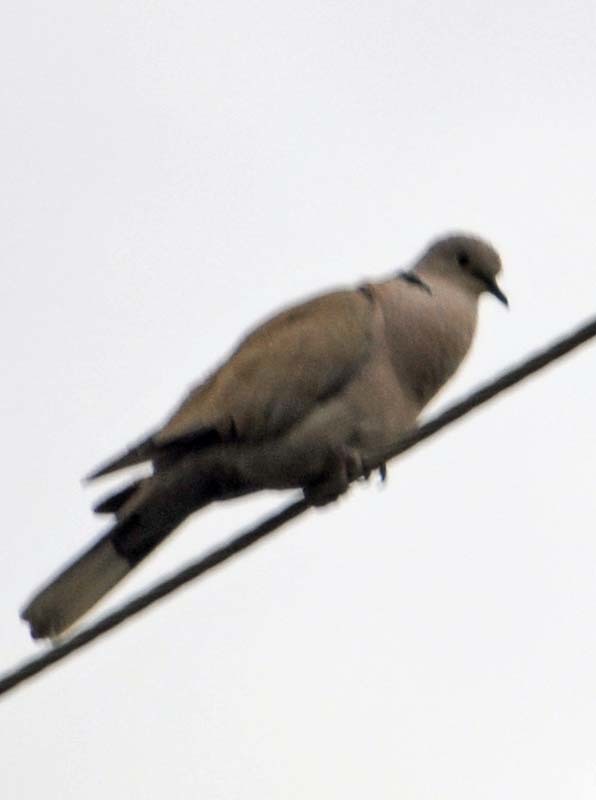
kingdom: Animalia
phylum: Chordata
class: Aves
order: Columbiformes
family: Columbidae
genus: Streptopelia
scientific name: Streptopelia decaocto
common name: Eurasian collared dove
